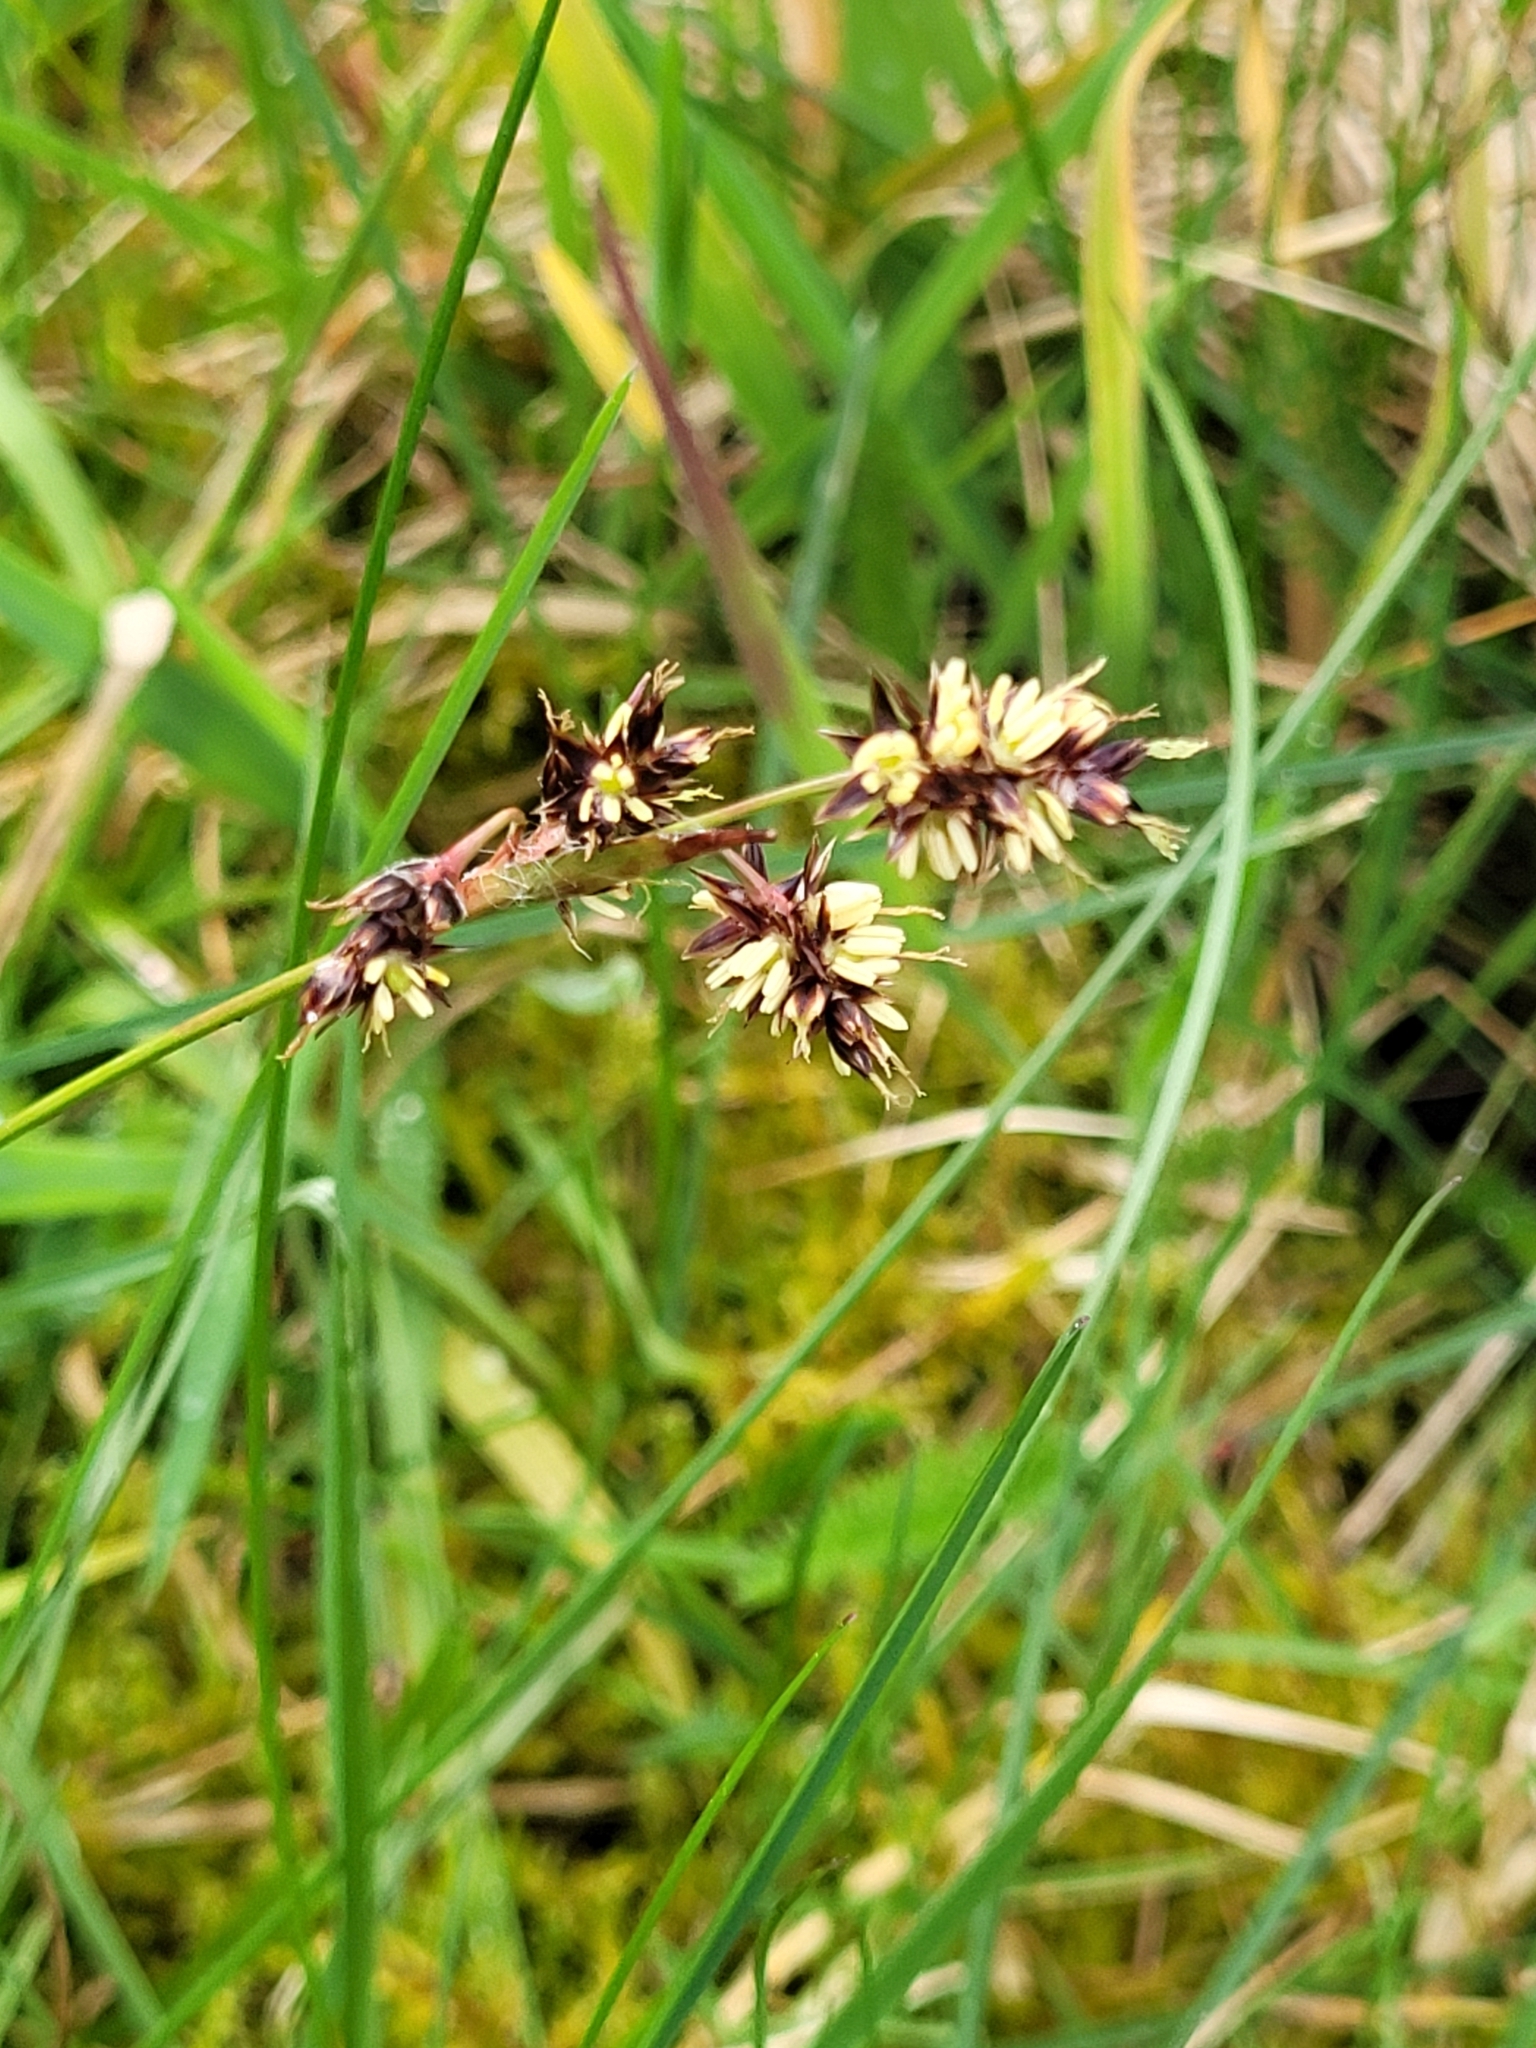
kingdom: Plantae
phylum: Tracheophyta
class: Liliopsida
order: Poales
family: Juncaceae
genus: Luzula
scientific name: Luzula campestris
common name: Field wood-rush
